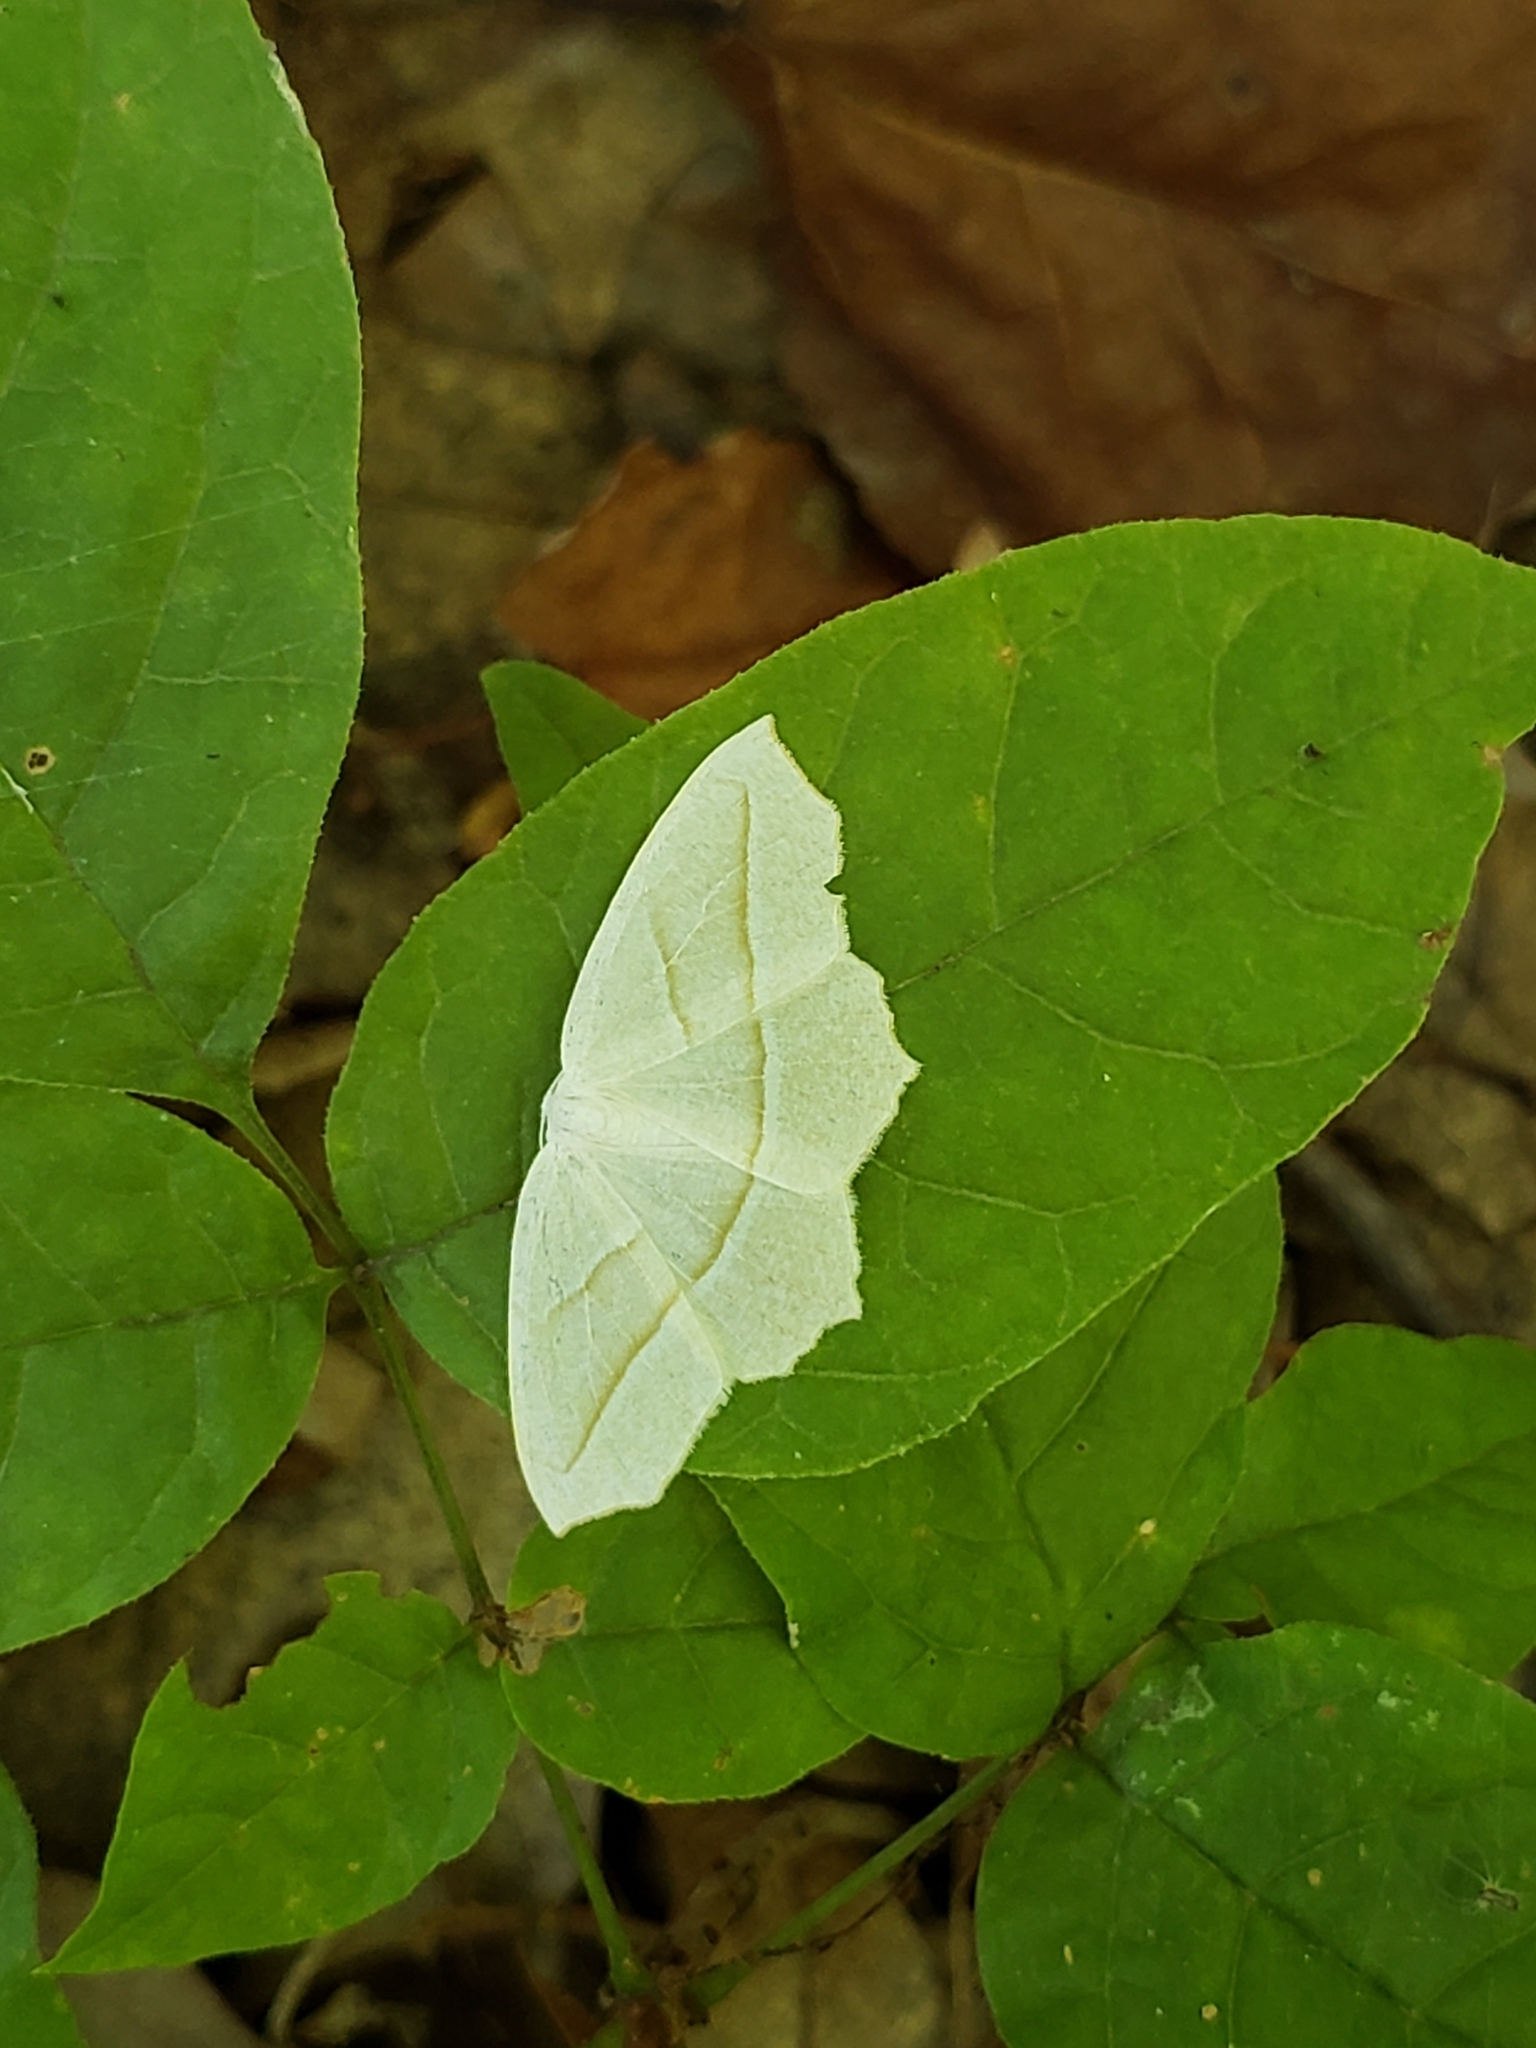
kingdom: Animalia
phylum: Arthropoda
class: Insecta
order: Lepidoptera
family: Geometridae
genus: Campaea
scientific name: Campaea perlata
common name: Fringed looper
